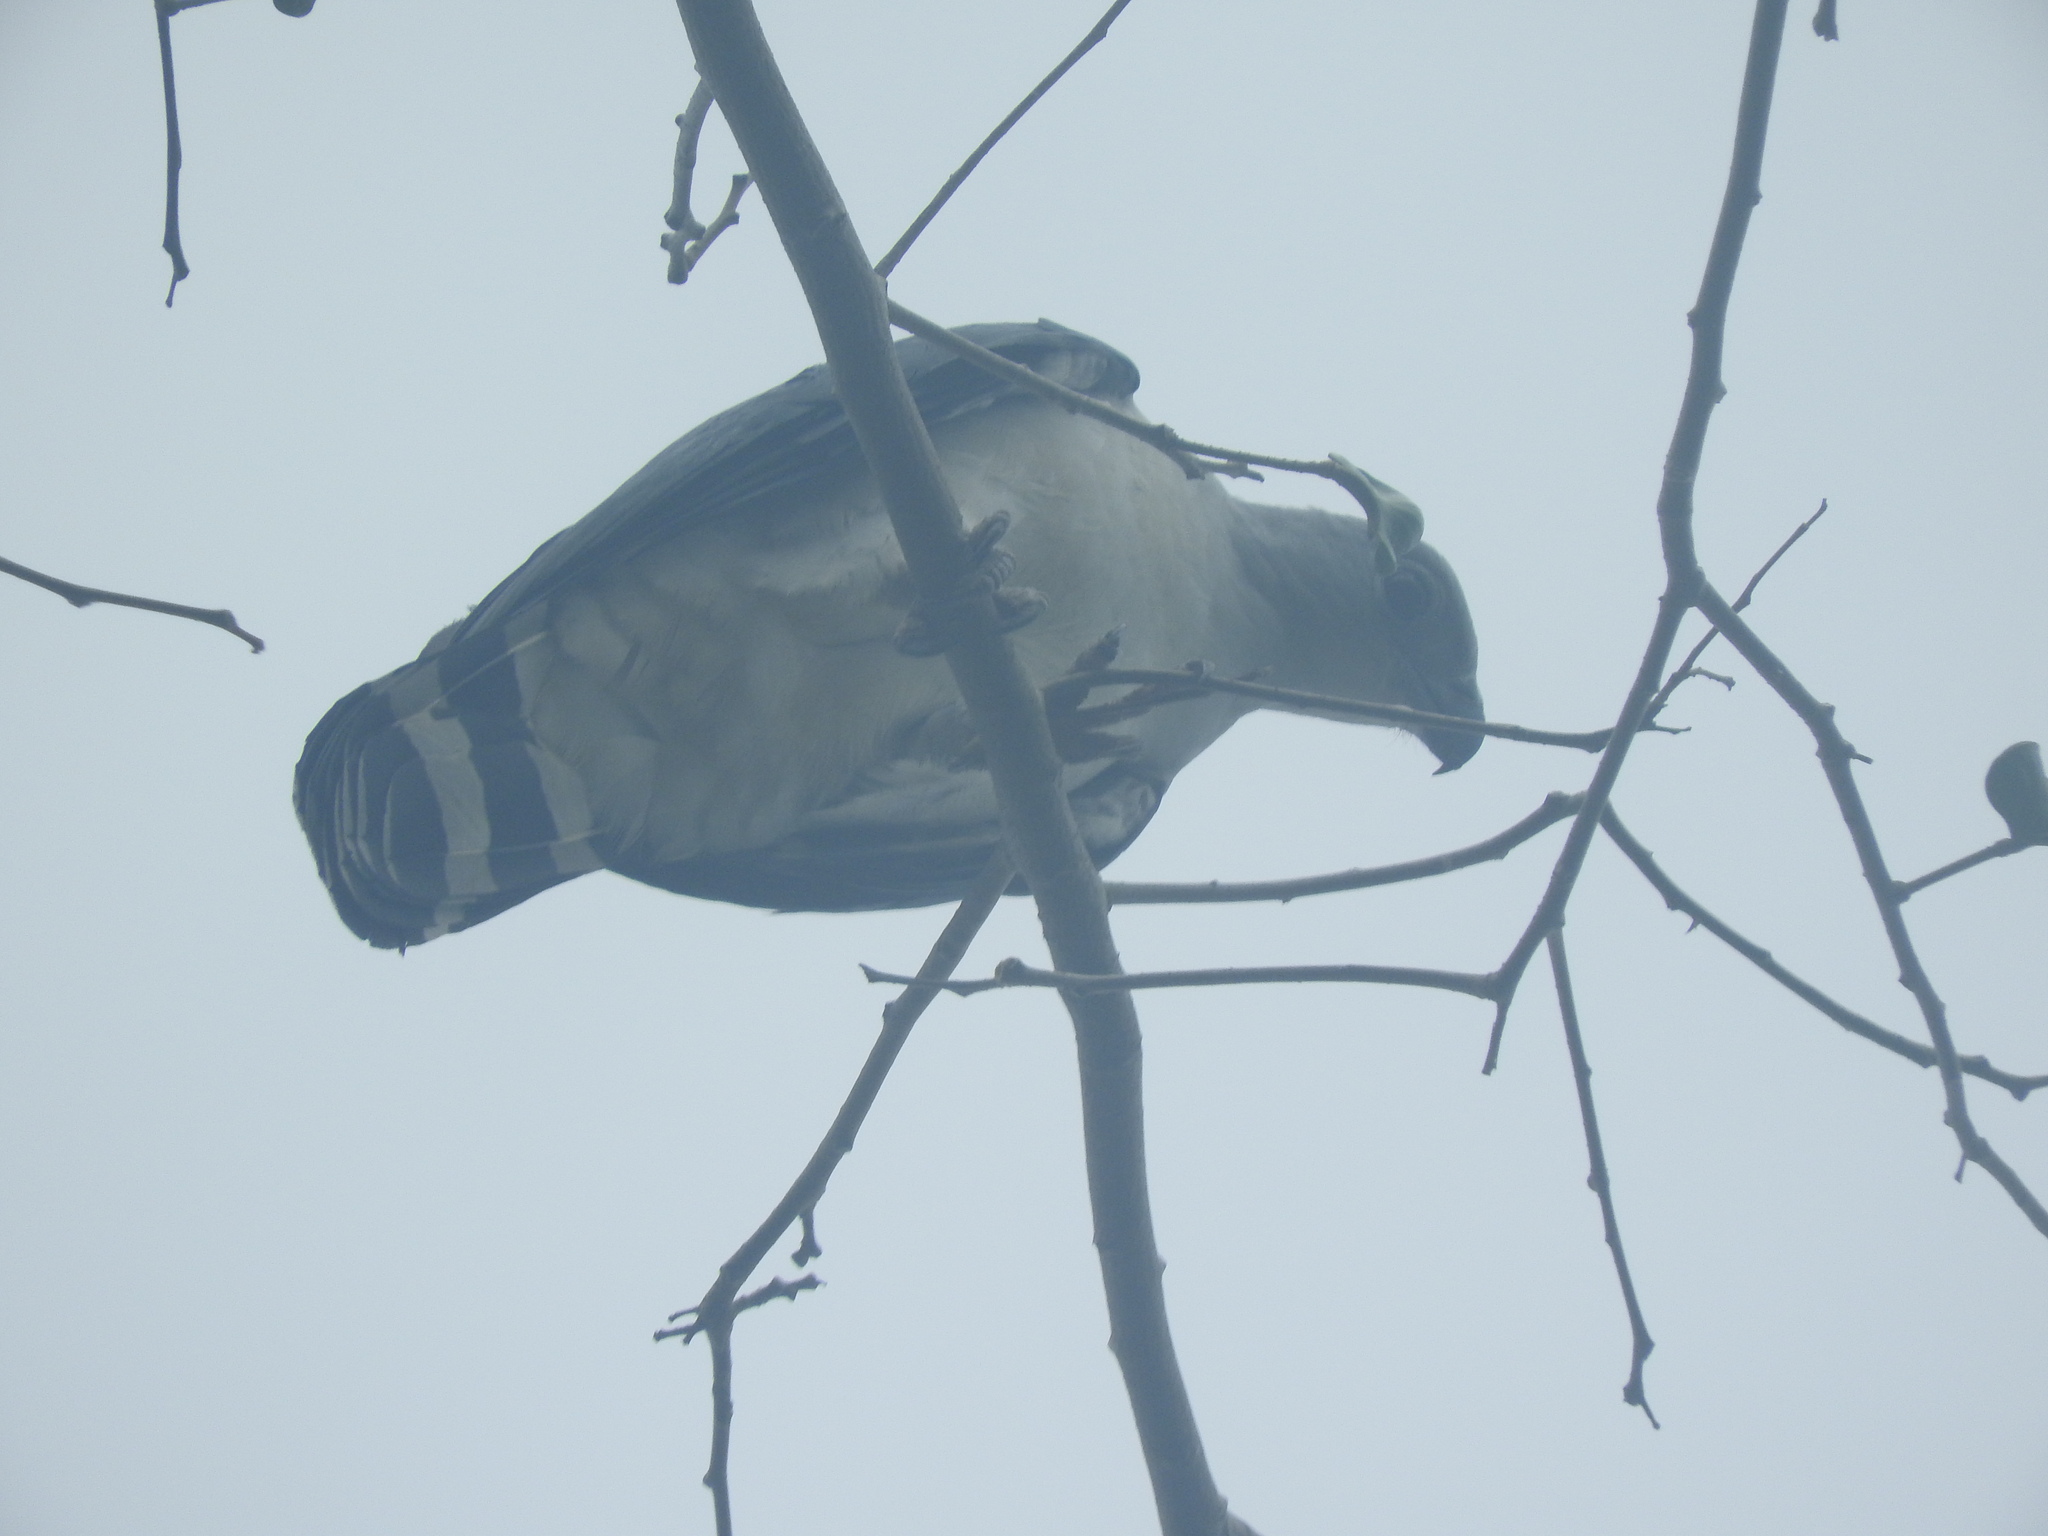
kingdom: Animalia
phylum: Chordata
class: Aves
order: Accipitriformes
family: Accipitridae
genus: Leptodon
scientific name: Leptodon cayanensis
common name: Gray-headed kite
